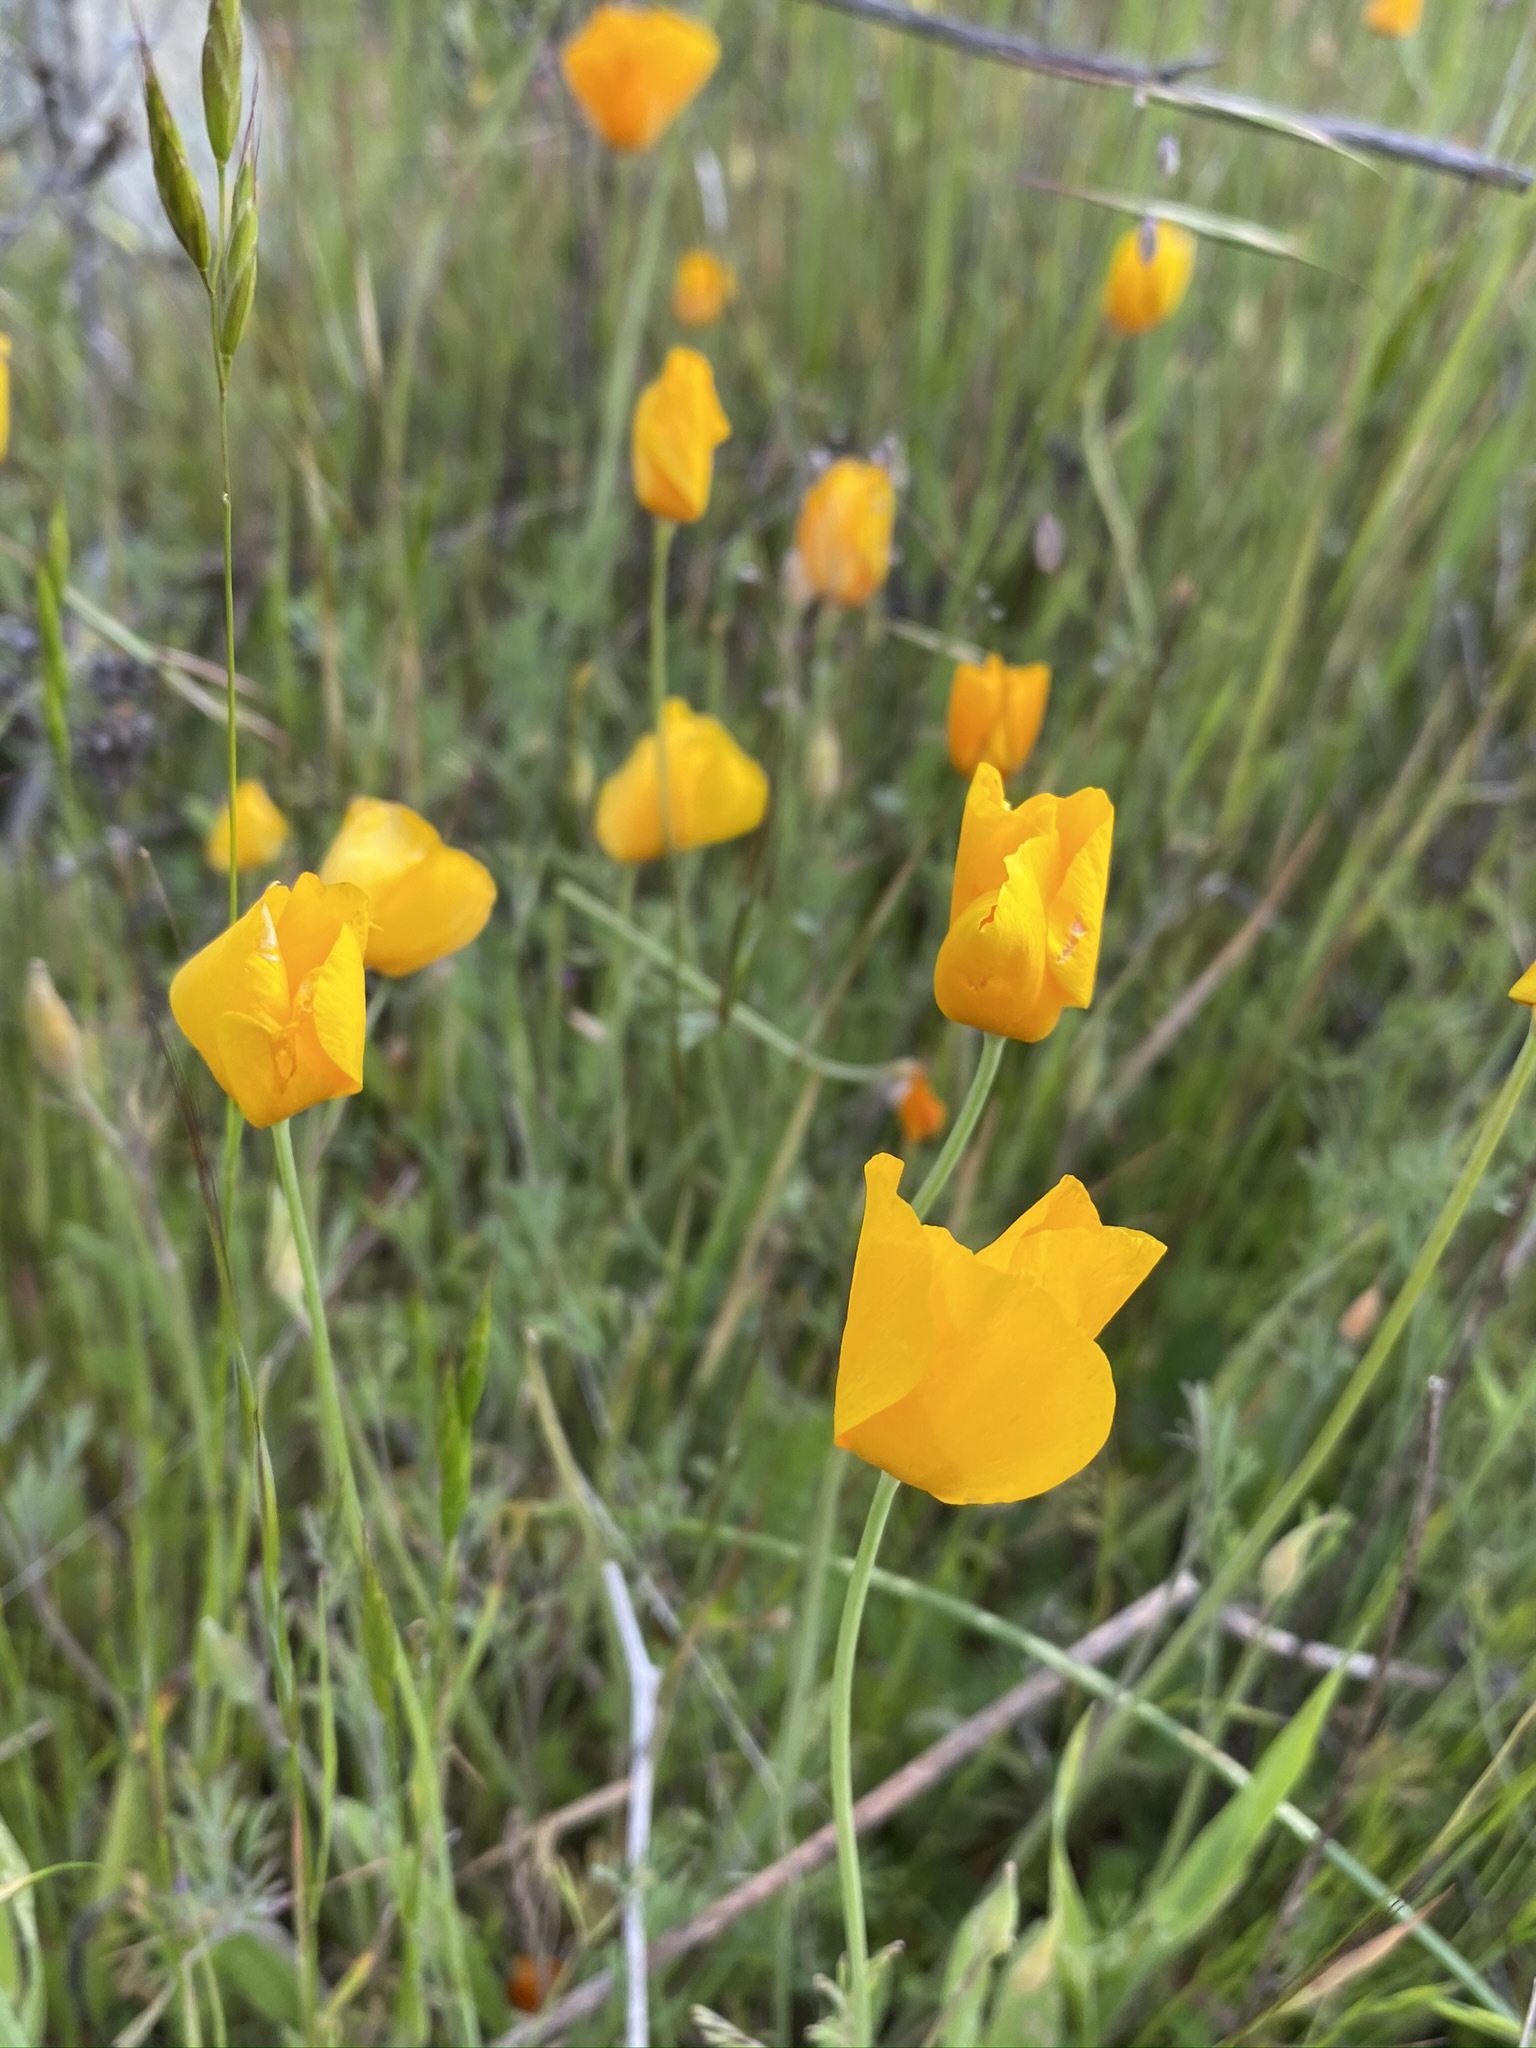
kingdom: Plantae
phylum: Tracheophyta
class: Magnoliopsida
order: Ranunculales
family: Papaveraceae
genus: Eschscholzia
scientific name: Eschscholzia caespitosa
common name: Tufted california-poppy
